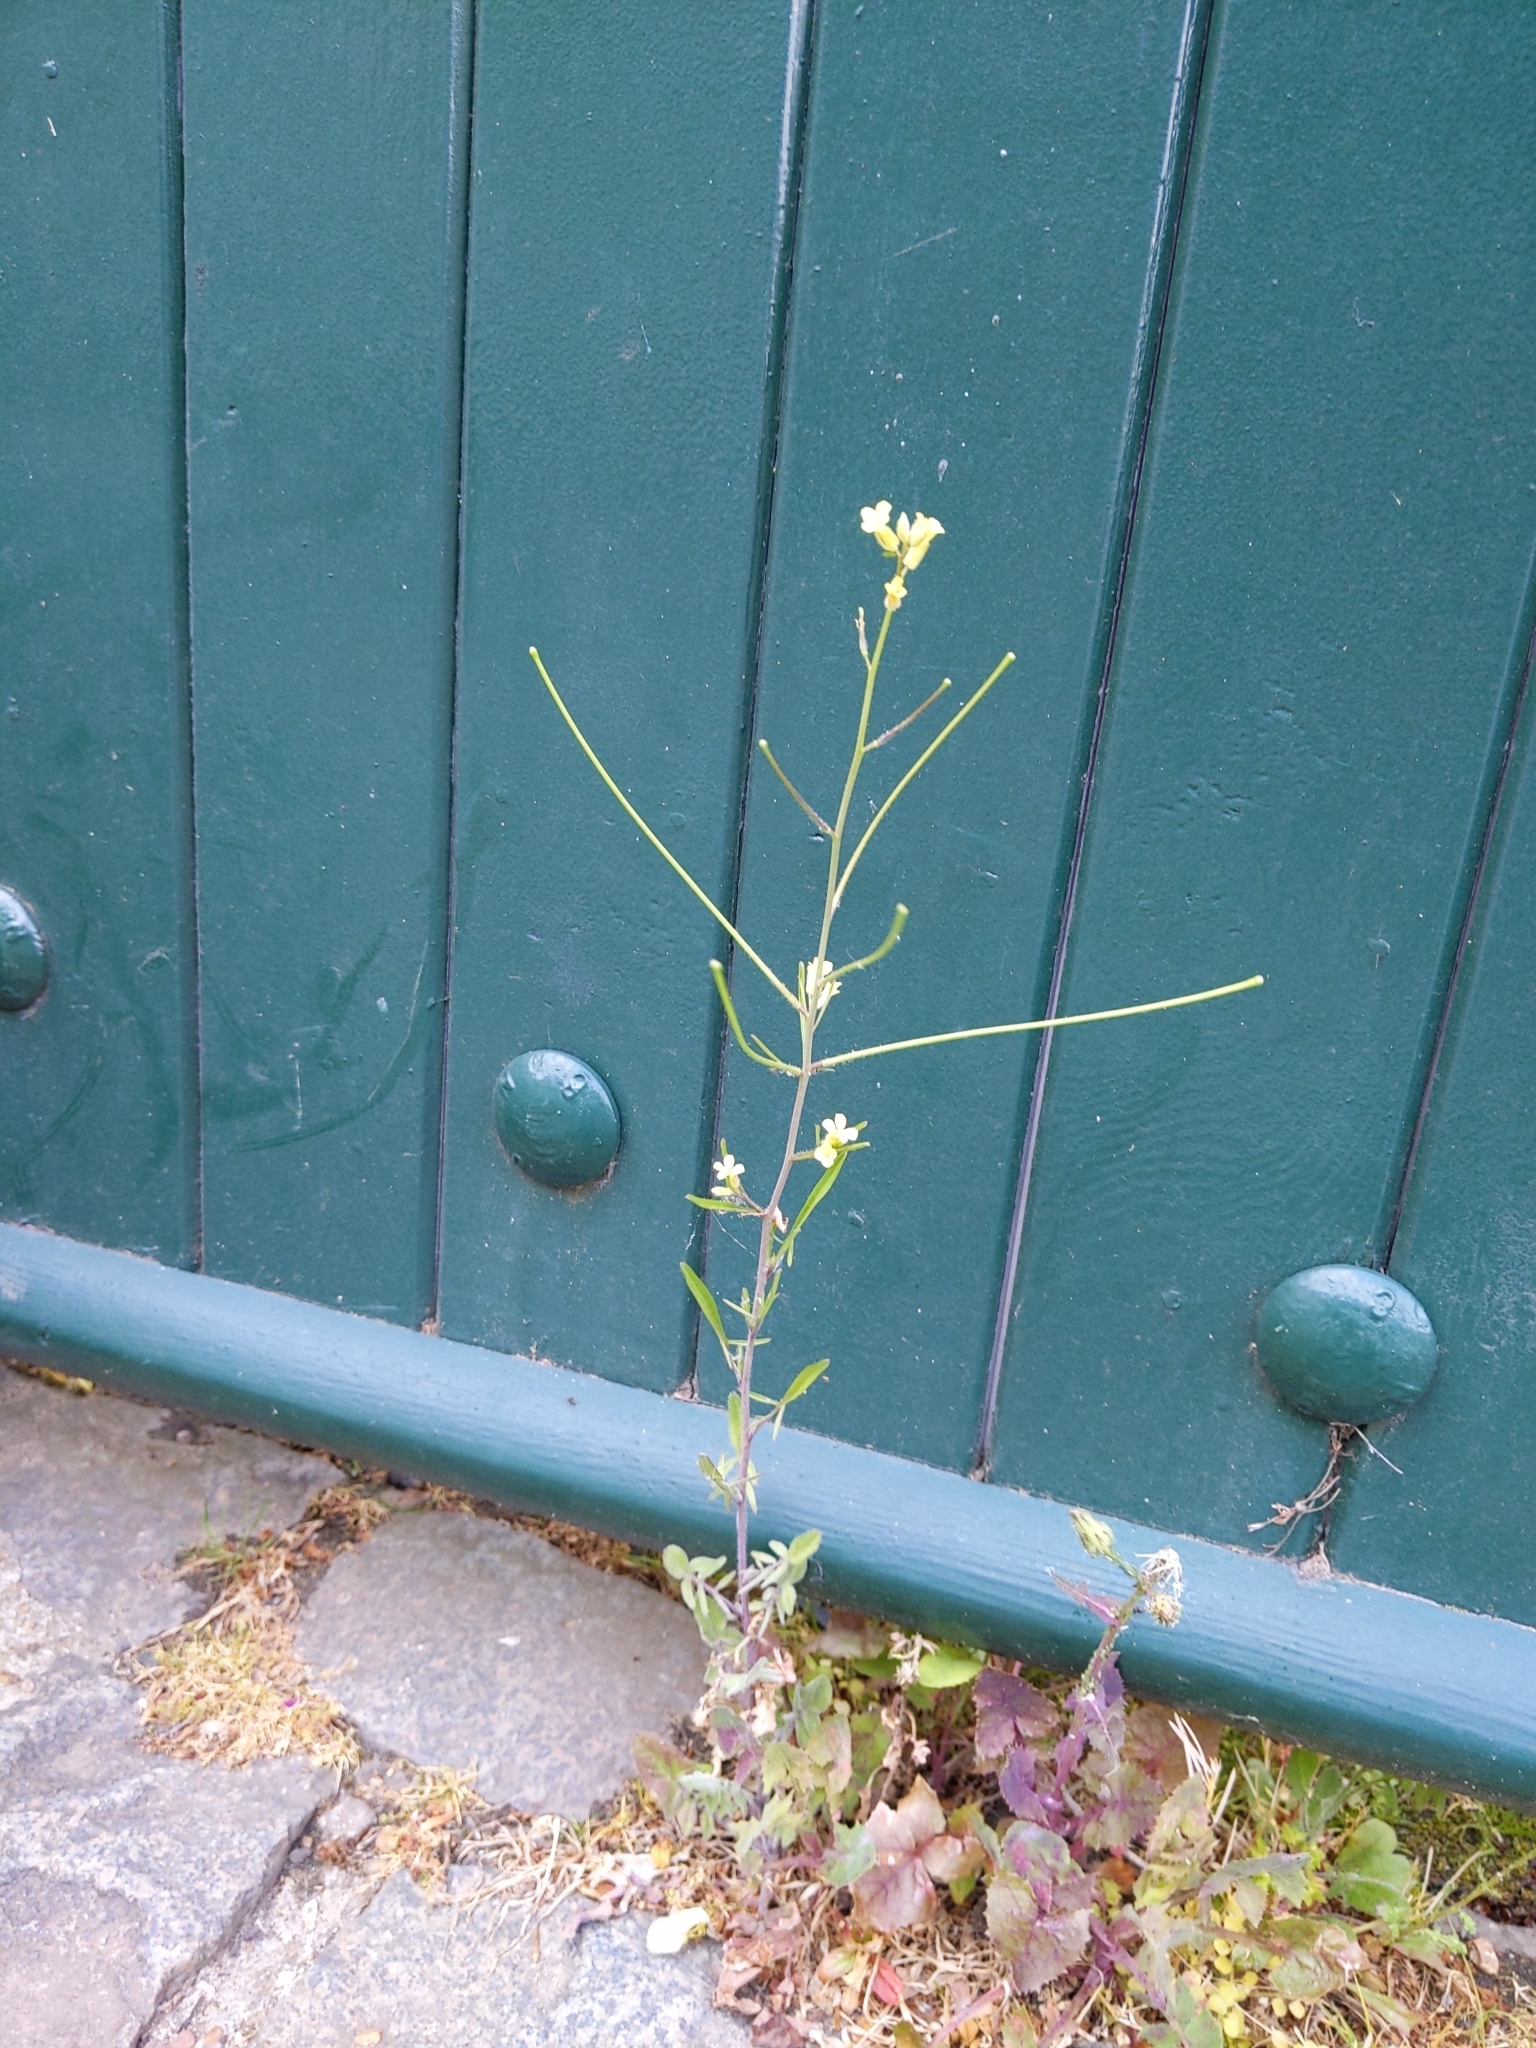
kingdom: Plantae
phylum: Tracheophyta
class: Magnoliopsida
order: Brassicales
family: Brassicaceae
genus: Sisymbrium
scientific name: Sisymbrium orientale
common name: Eastern rocket
